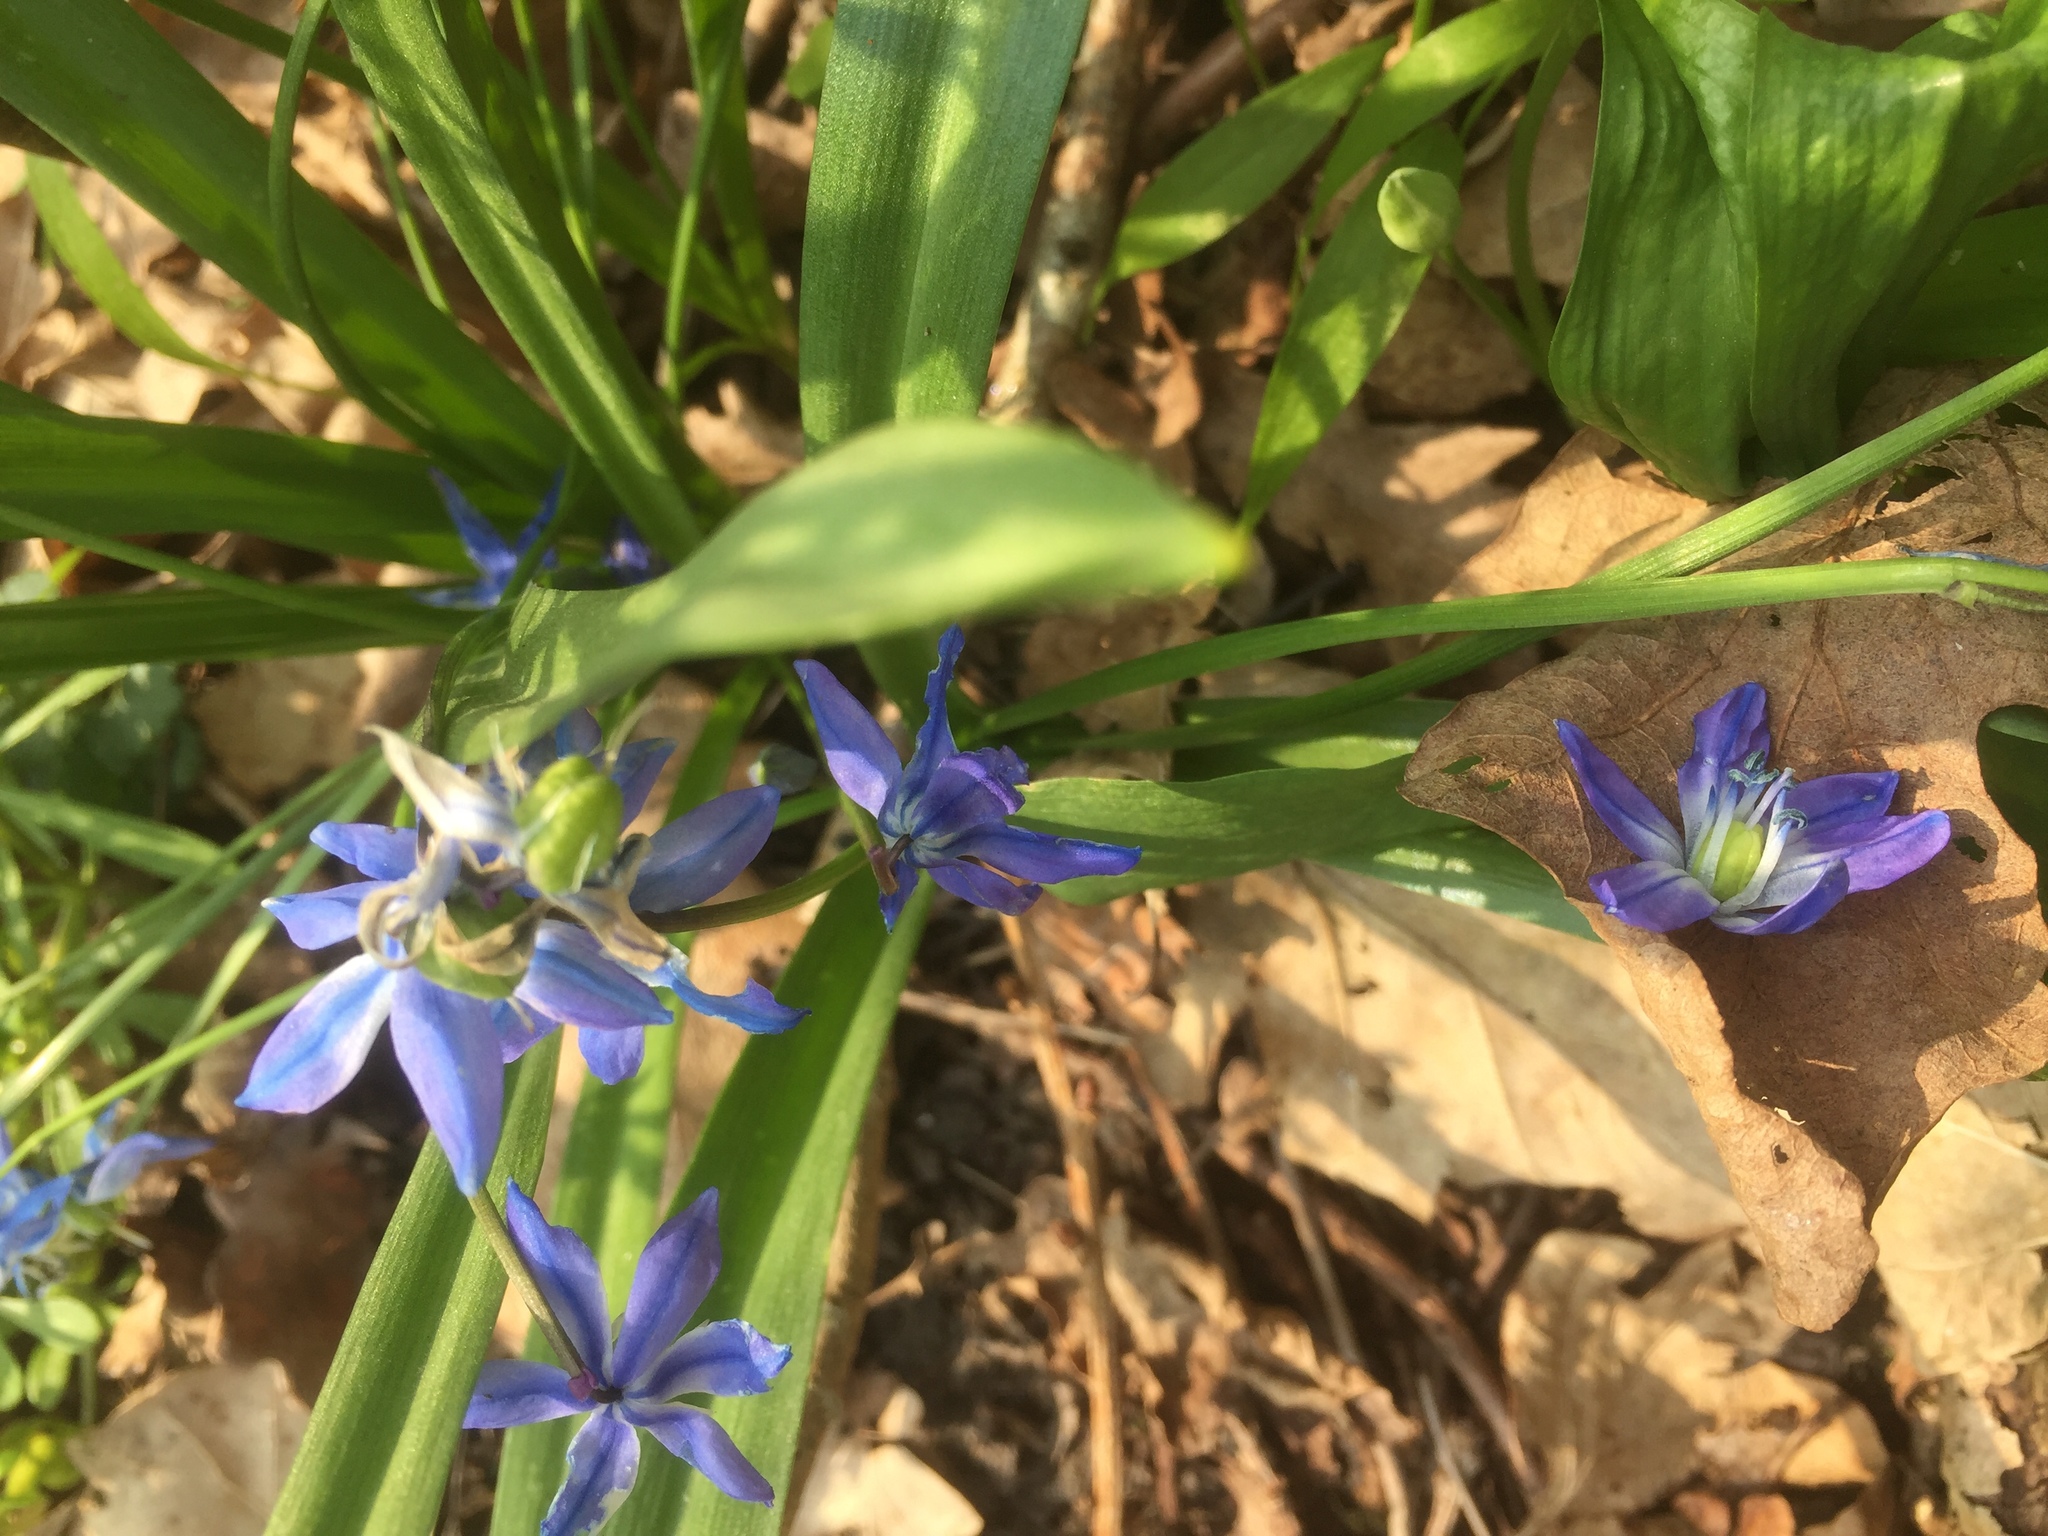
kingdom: Plantae
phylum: Tracheophyta
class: Liliopsida
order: Asparagales
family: Asparagaceae
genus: Scilla
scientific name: Scilla siberica
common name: Siberian squill
